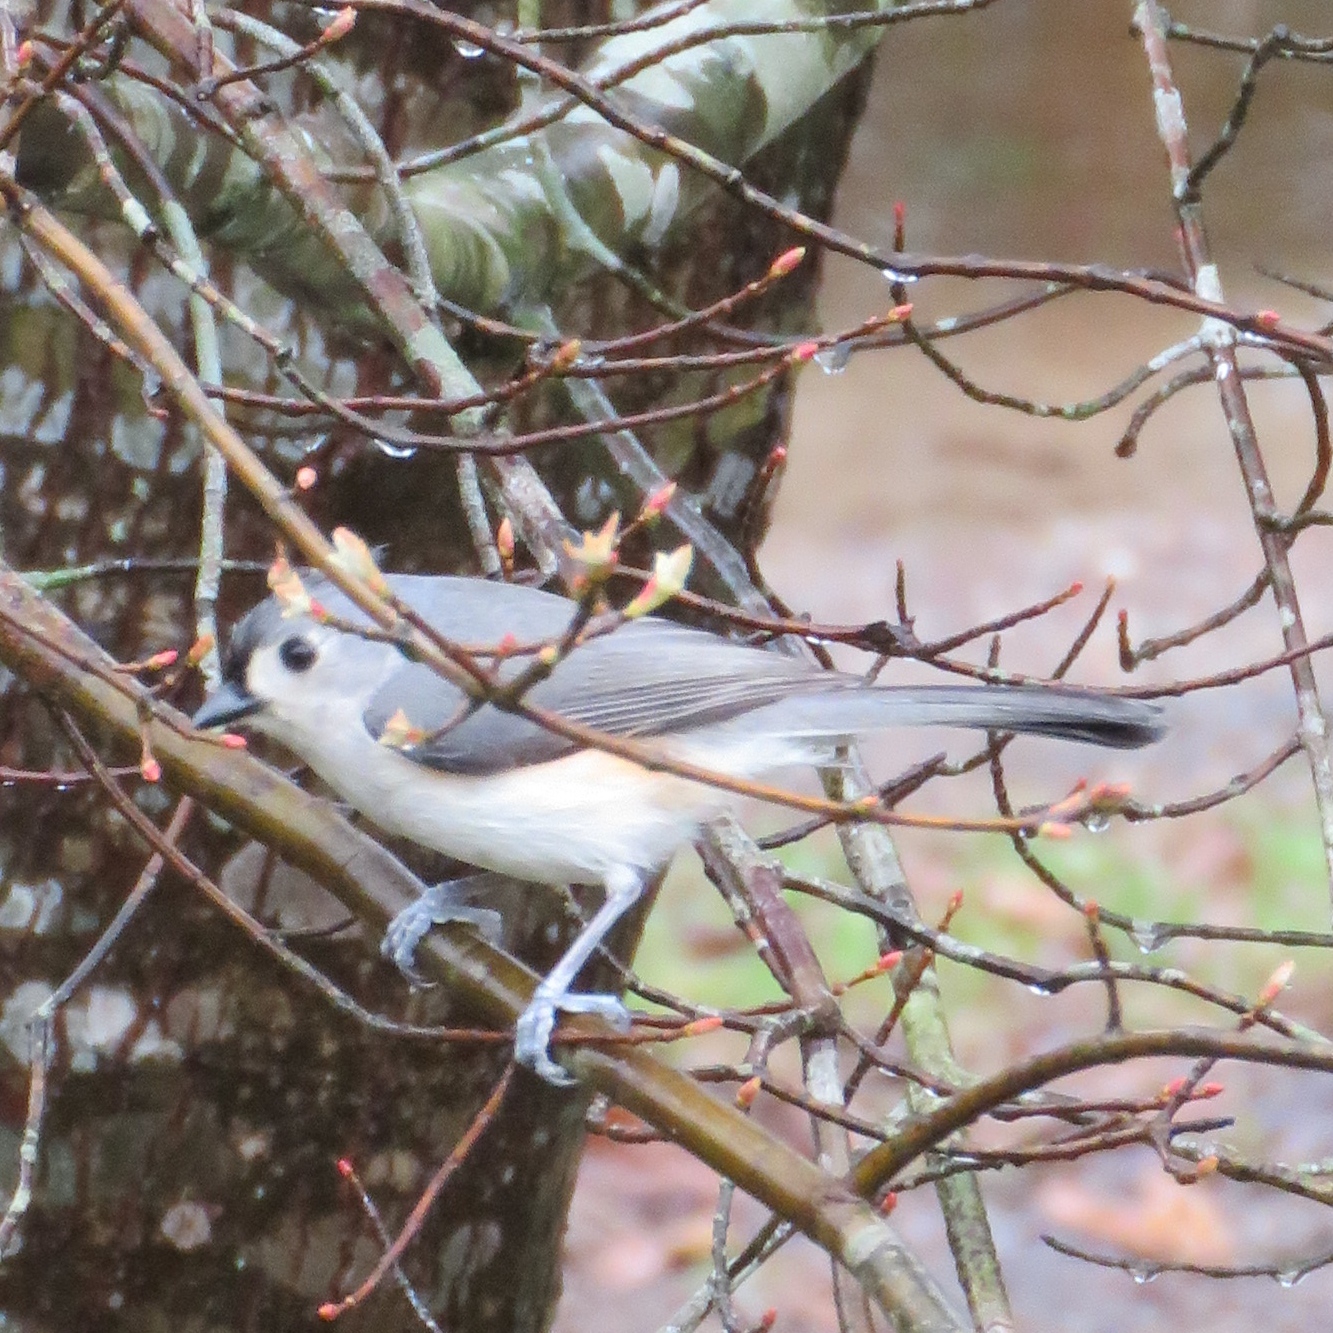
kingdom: Animalia
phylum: Chordata
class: Aves
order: Passeriformes
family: Paridae
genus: Baeolophus
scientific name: Baeolophus bicolor
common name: Tufted titmouse
